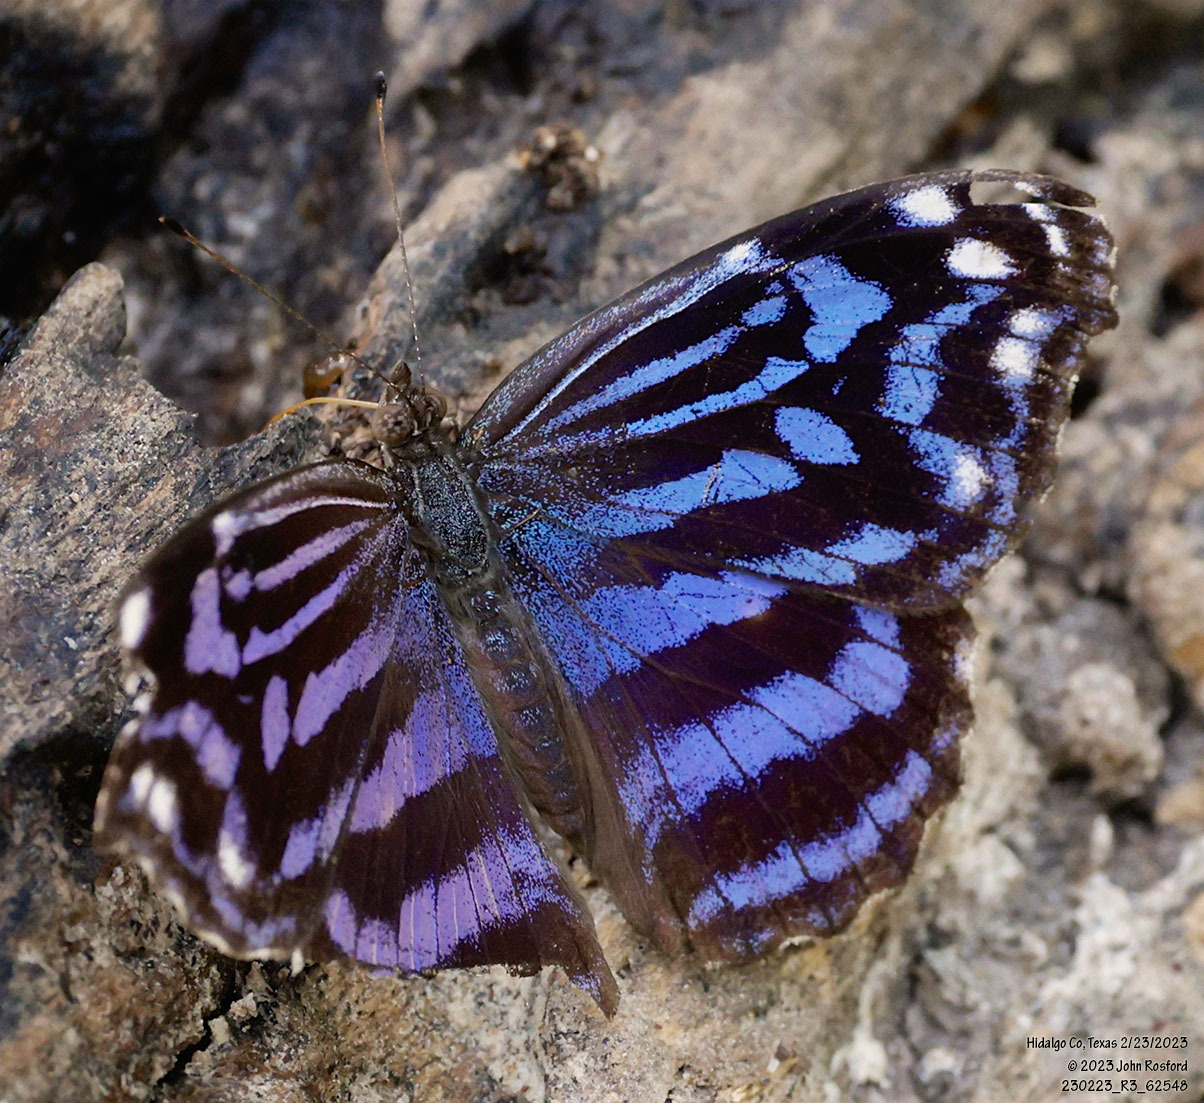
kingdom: Animalia
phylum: Arthropoda
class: Insecta
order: Lepidoptera
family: Nymphalidae
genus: Myscelia
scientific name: Myscelia ethusa
